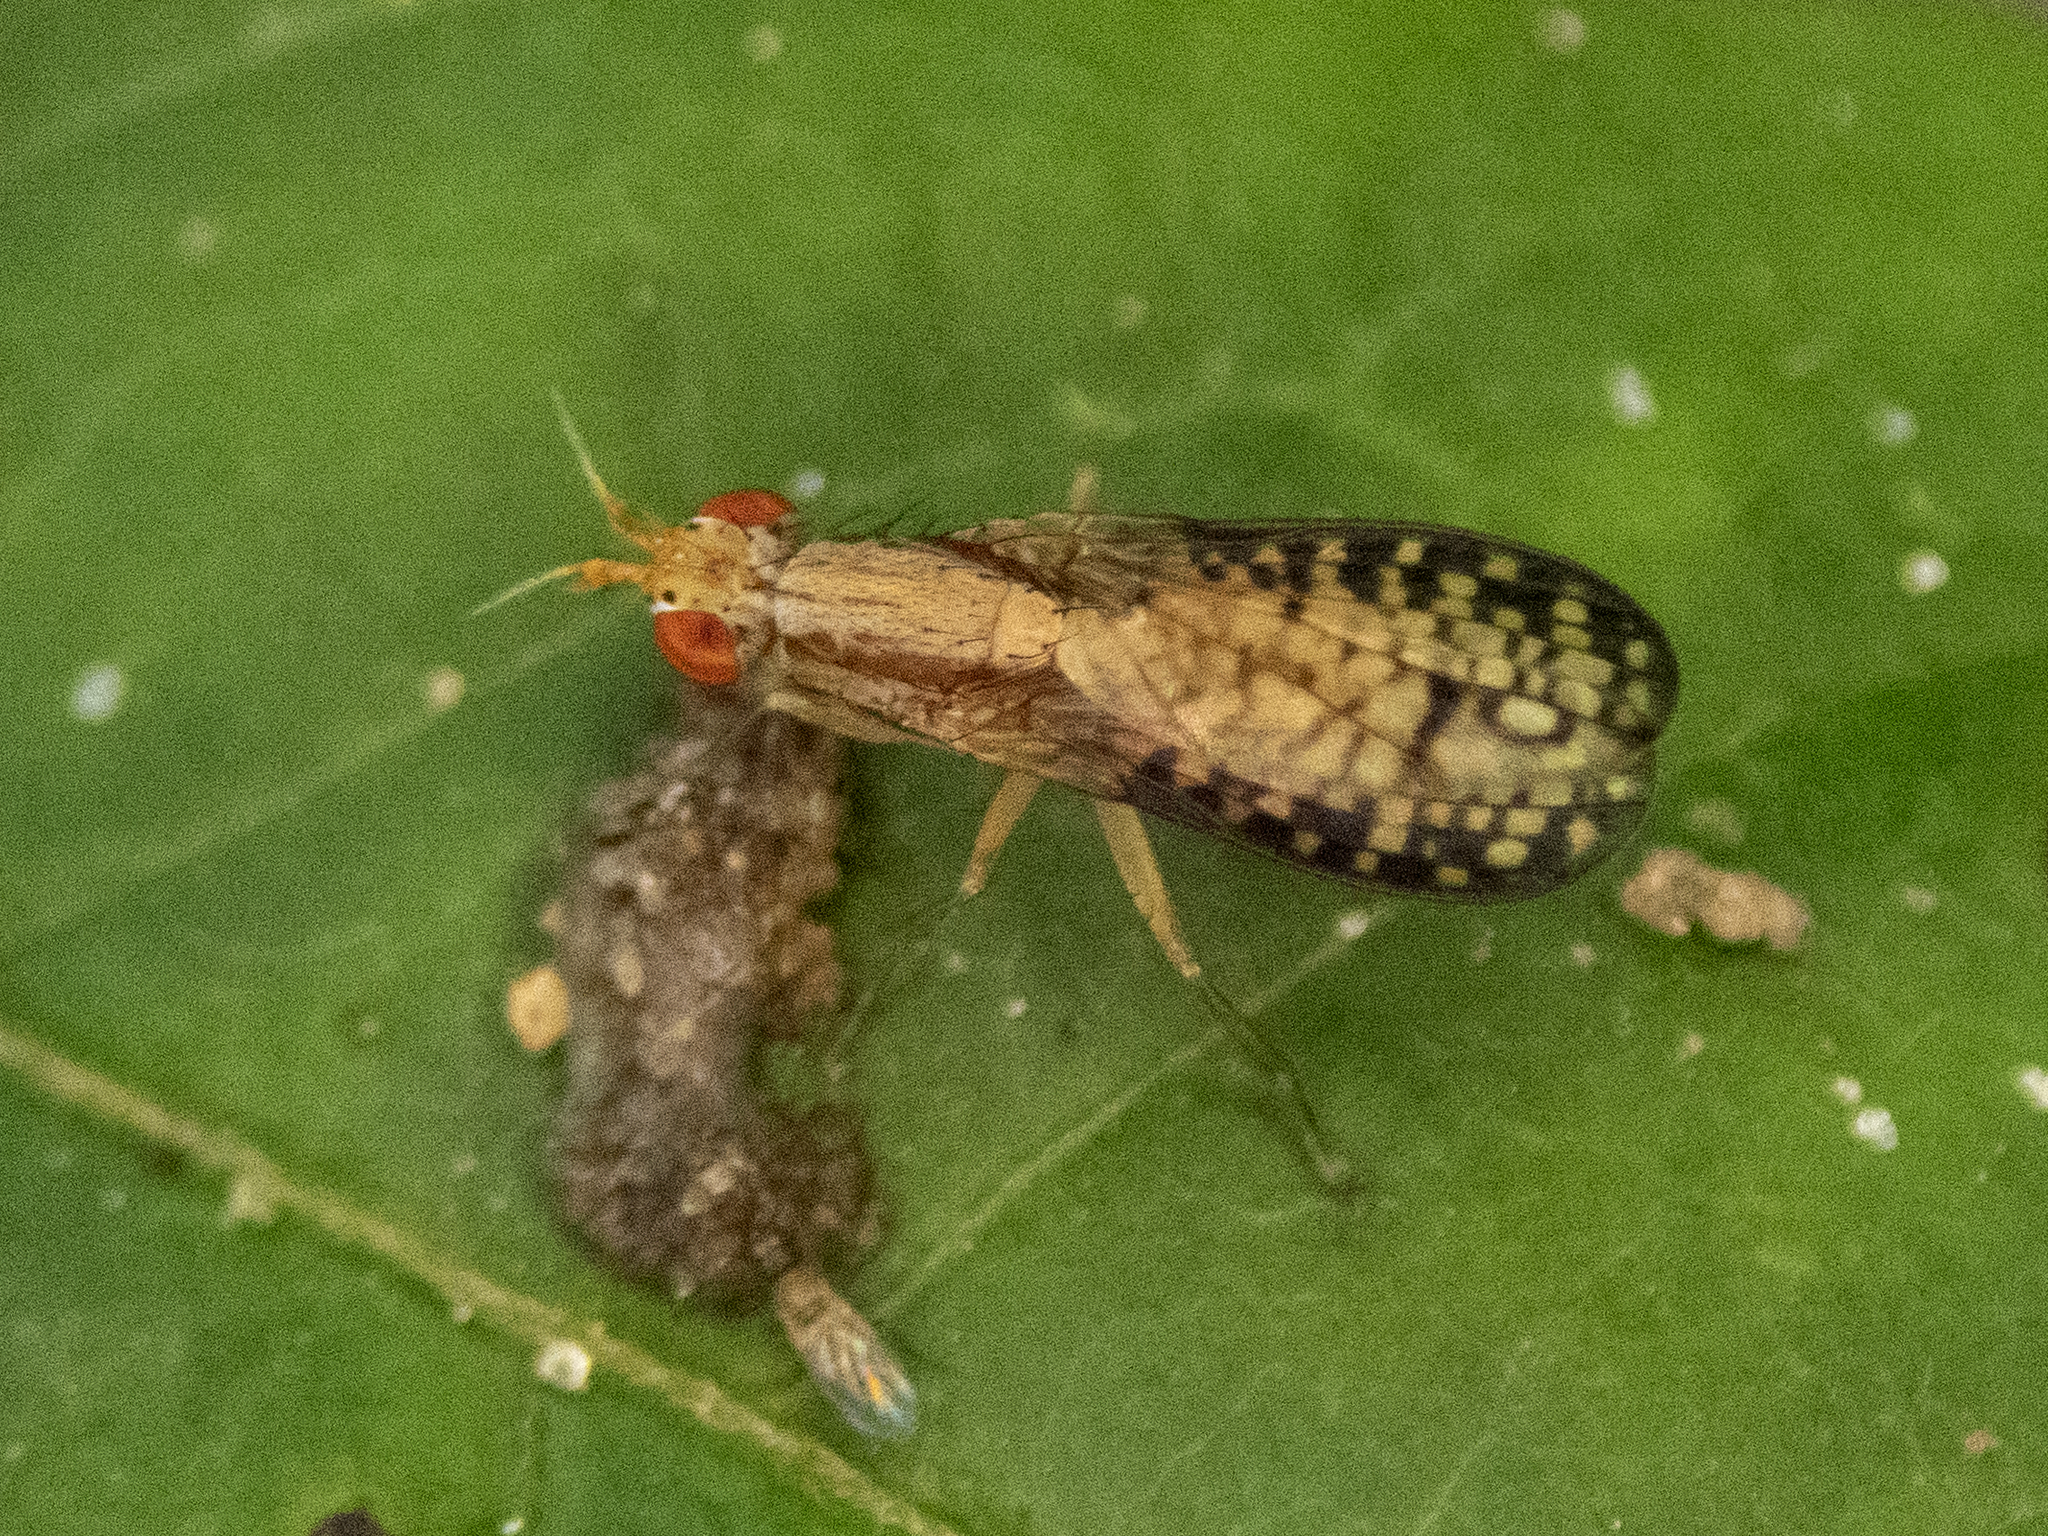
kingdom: Animalia
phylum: Arthropoda
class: Insecta
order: Diptera
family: Sciomyzidae
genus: Trypetoptera
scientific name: Trypetoptera canadensis
